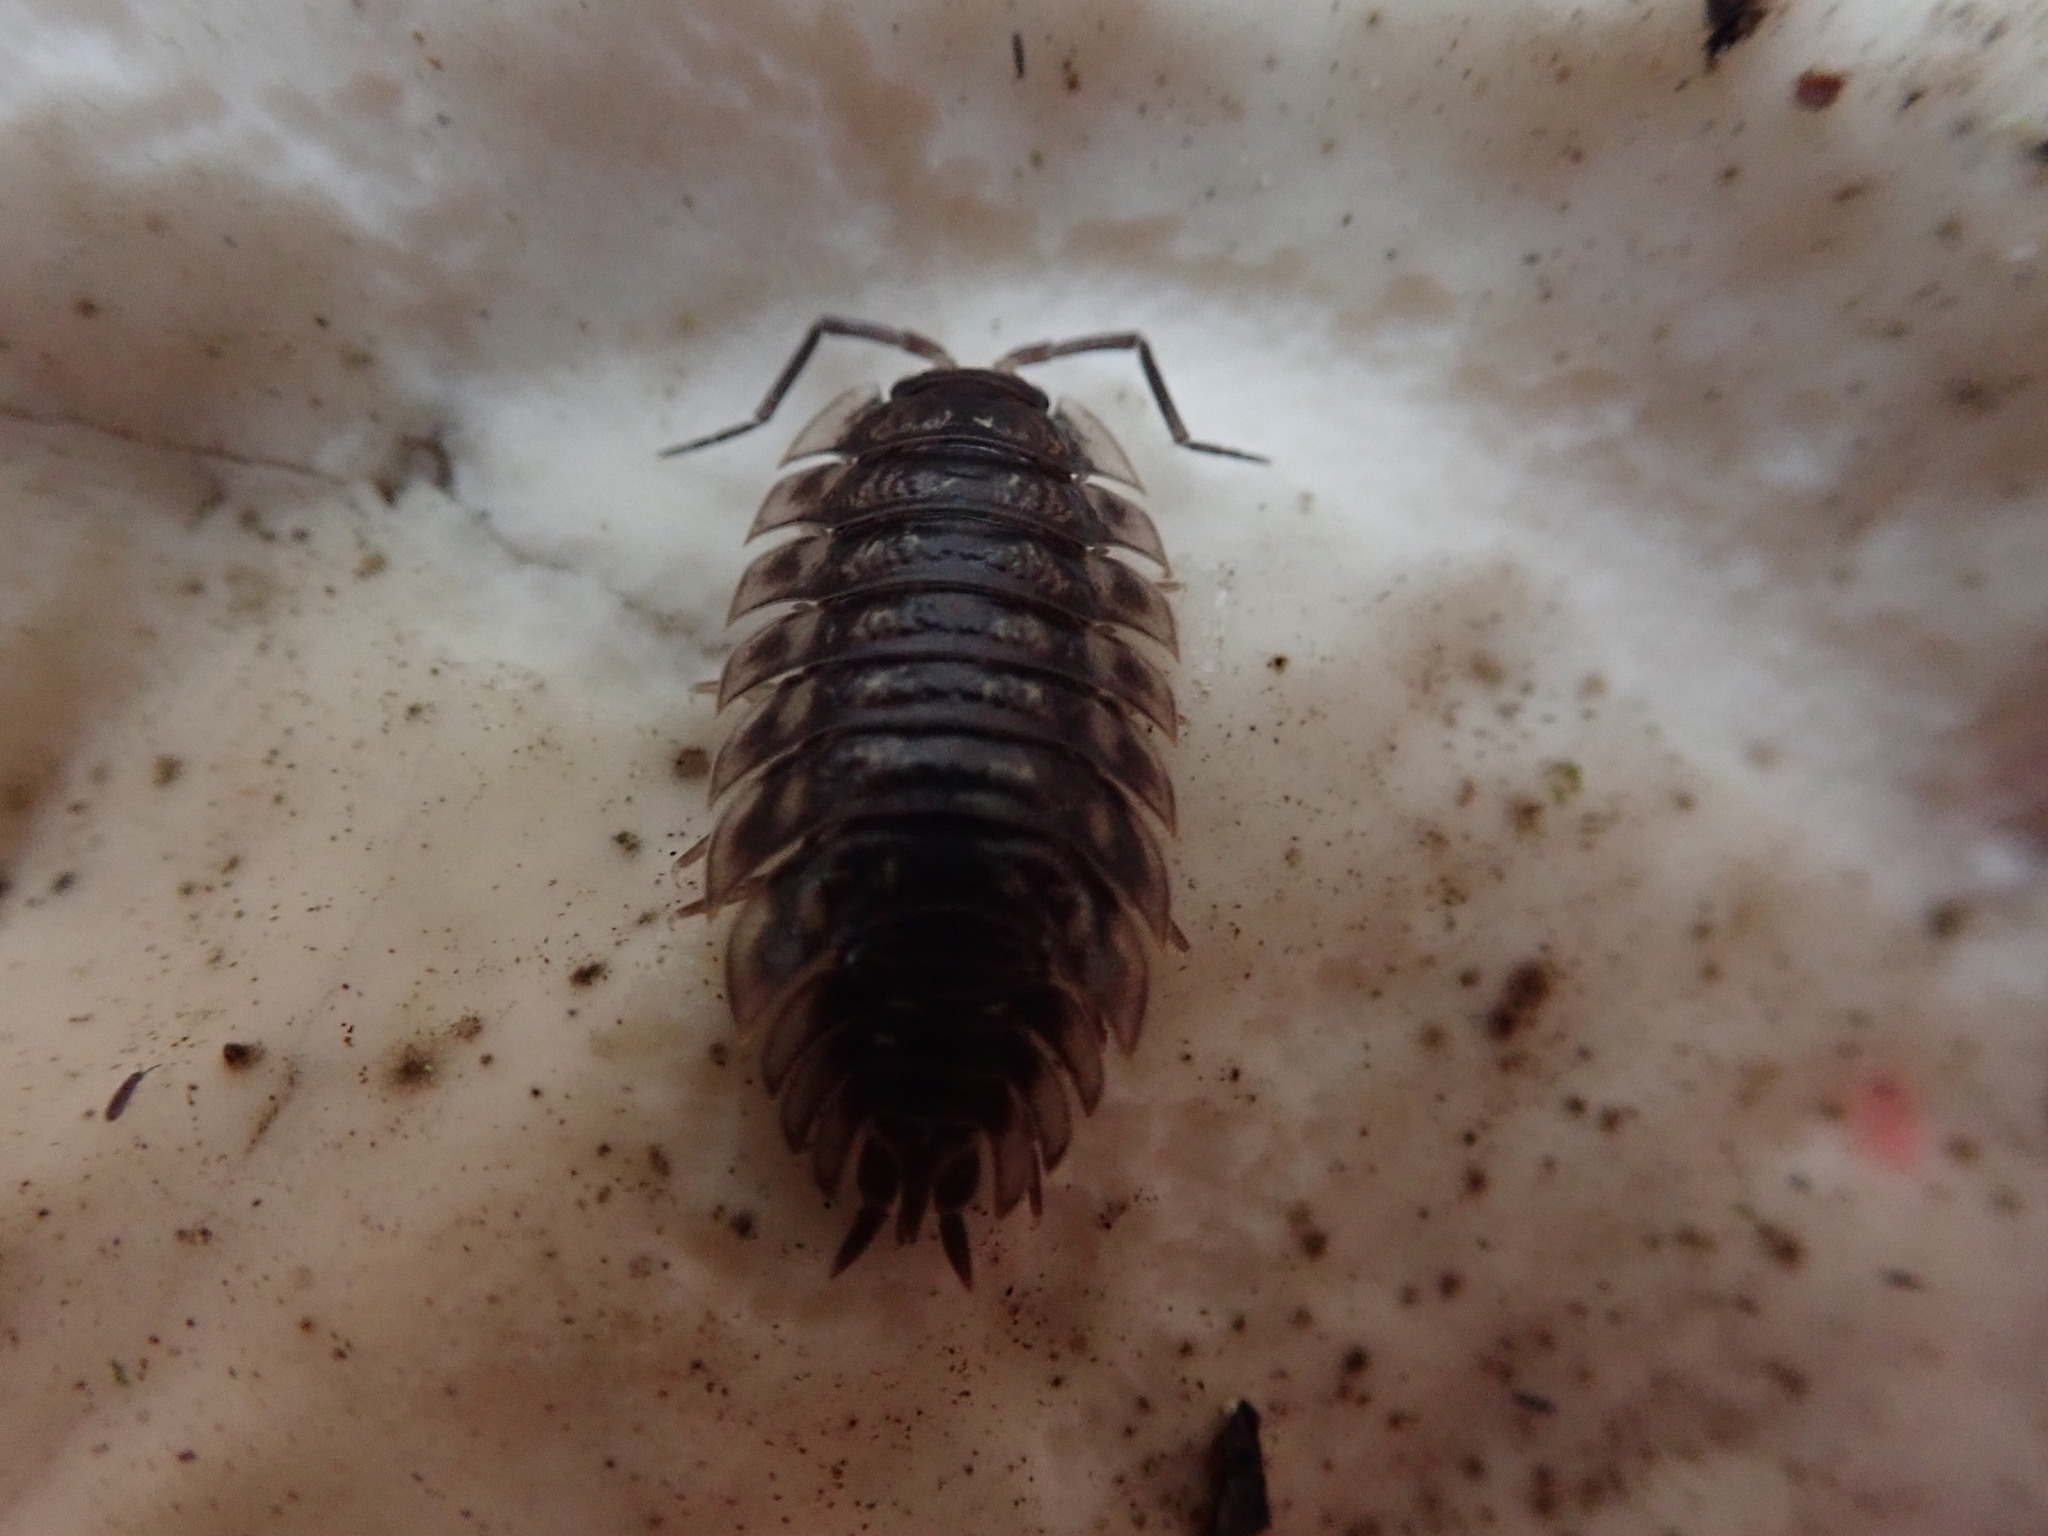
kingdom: Animalia
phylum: Arthropoda
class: Malacostraca
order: Isopoda
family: Oniscidae
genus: Oniscus
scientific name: Oniscus asellus
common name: Common shiny woodlouse
